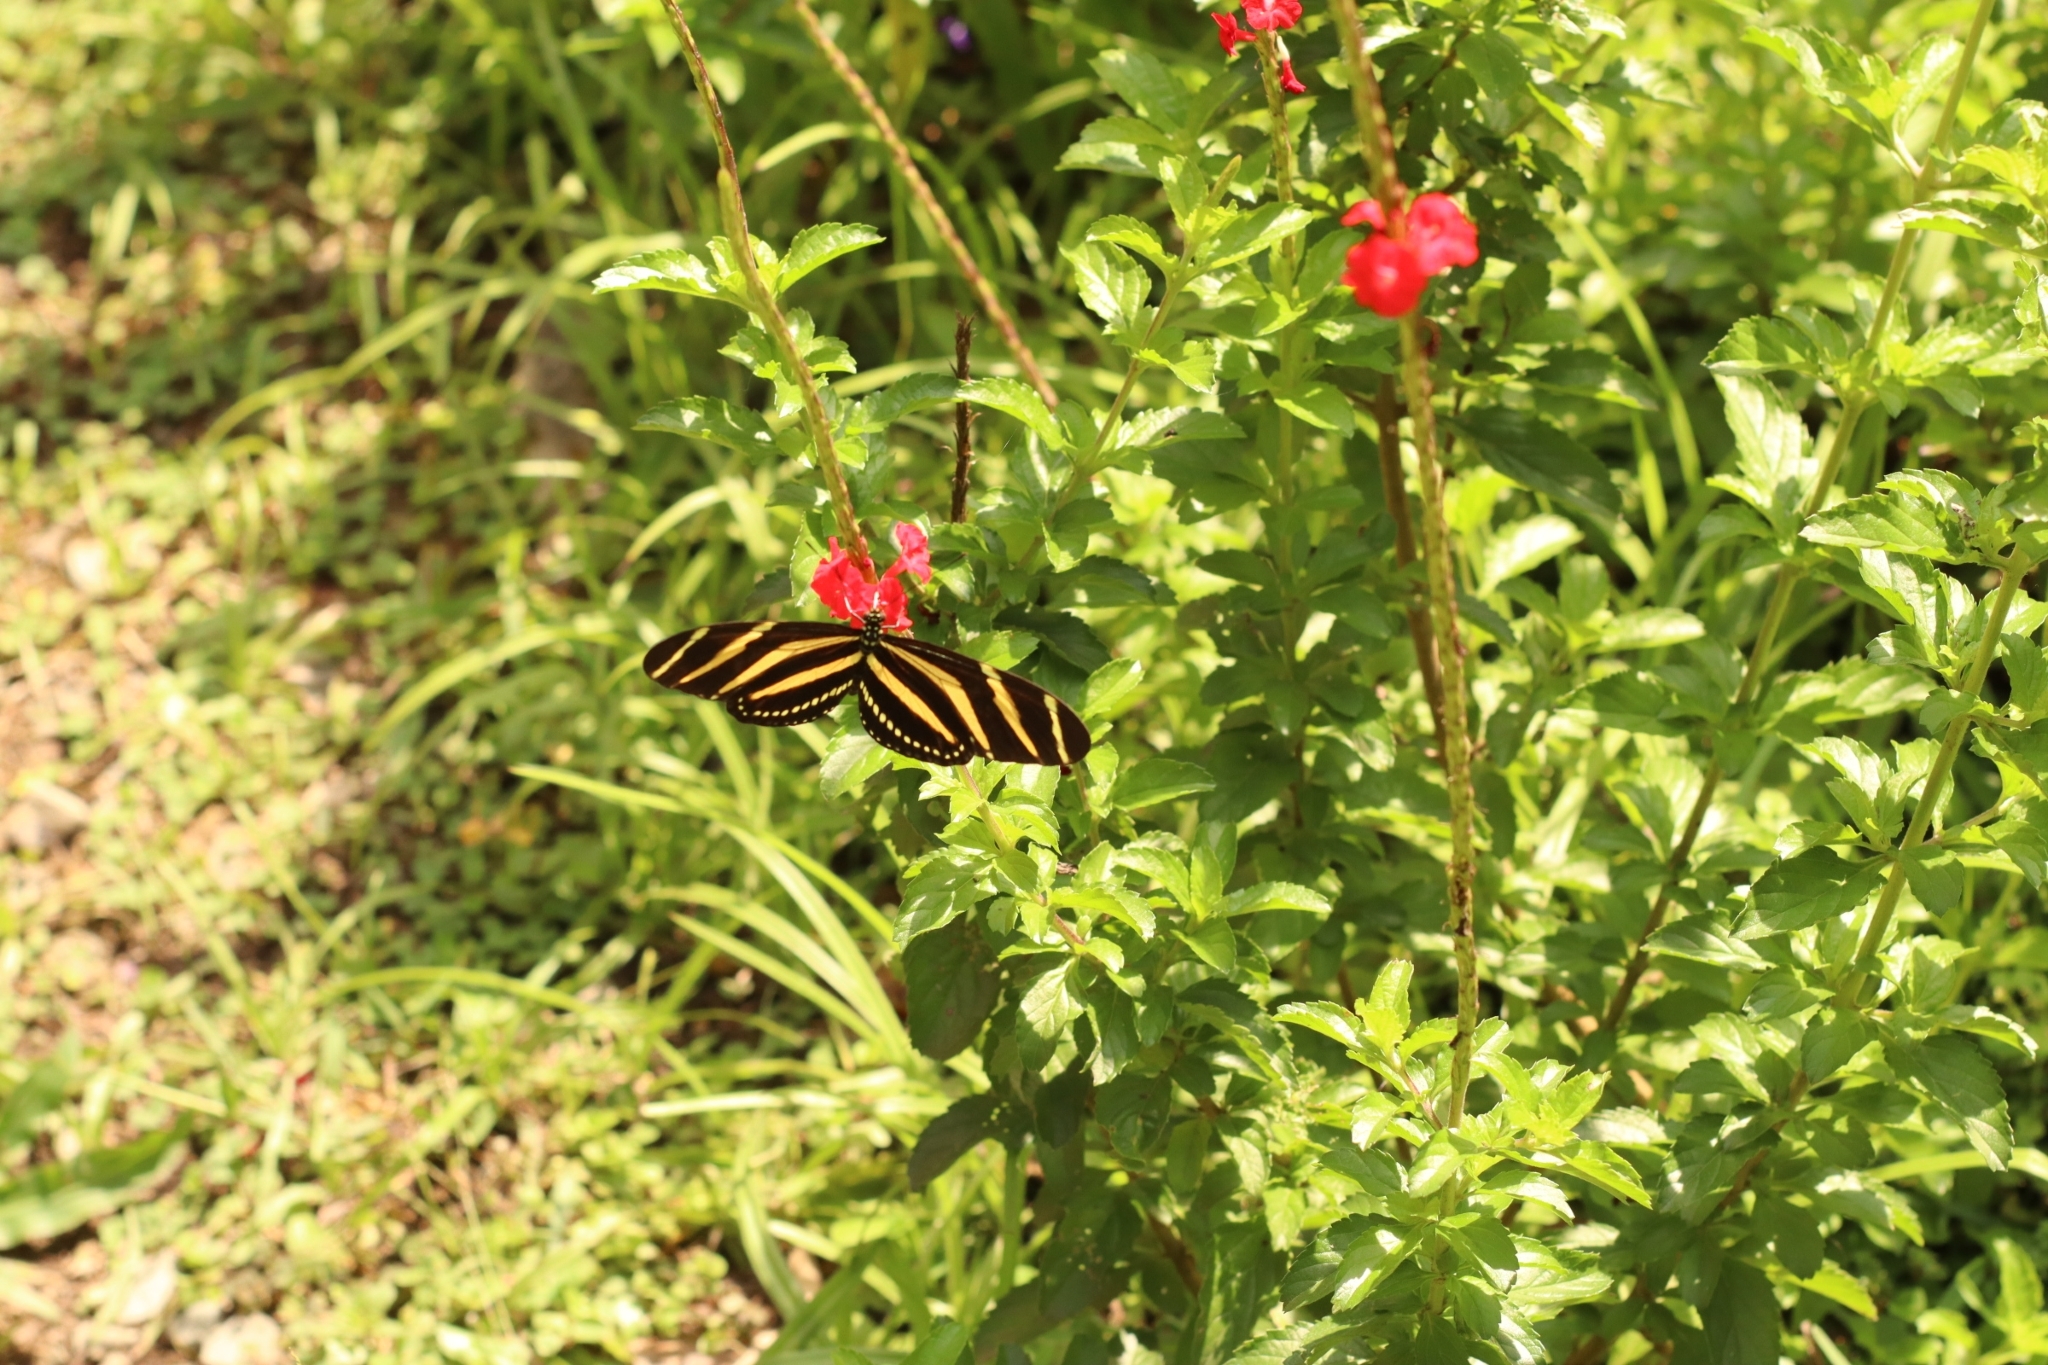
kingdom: Animalia
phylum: Arthropoda
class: Insecta
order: Lepidoptera
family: Nymphalidae
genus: Heliconius
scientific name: Heliconius charithonia
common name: Zebra long wing
